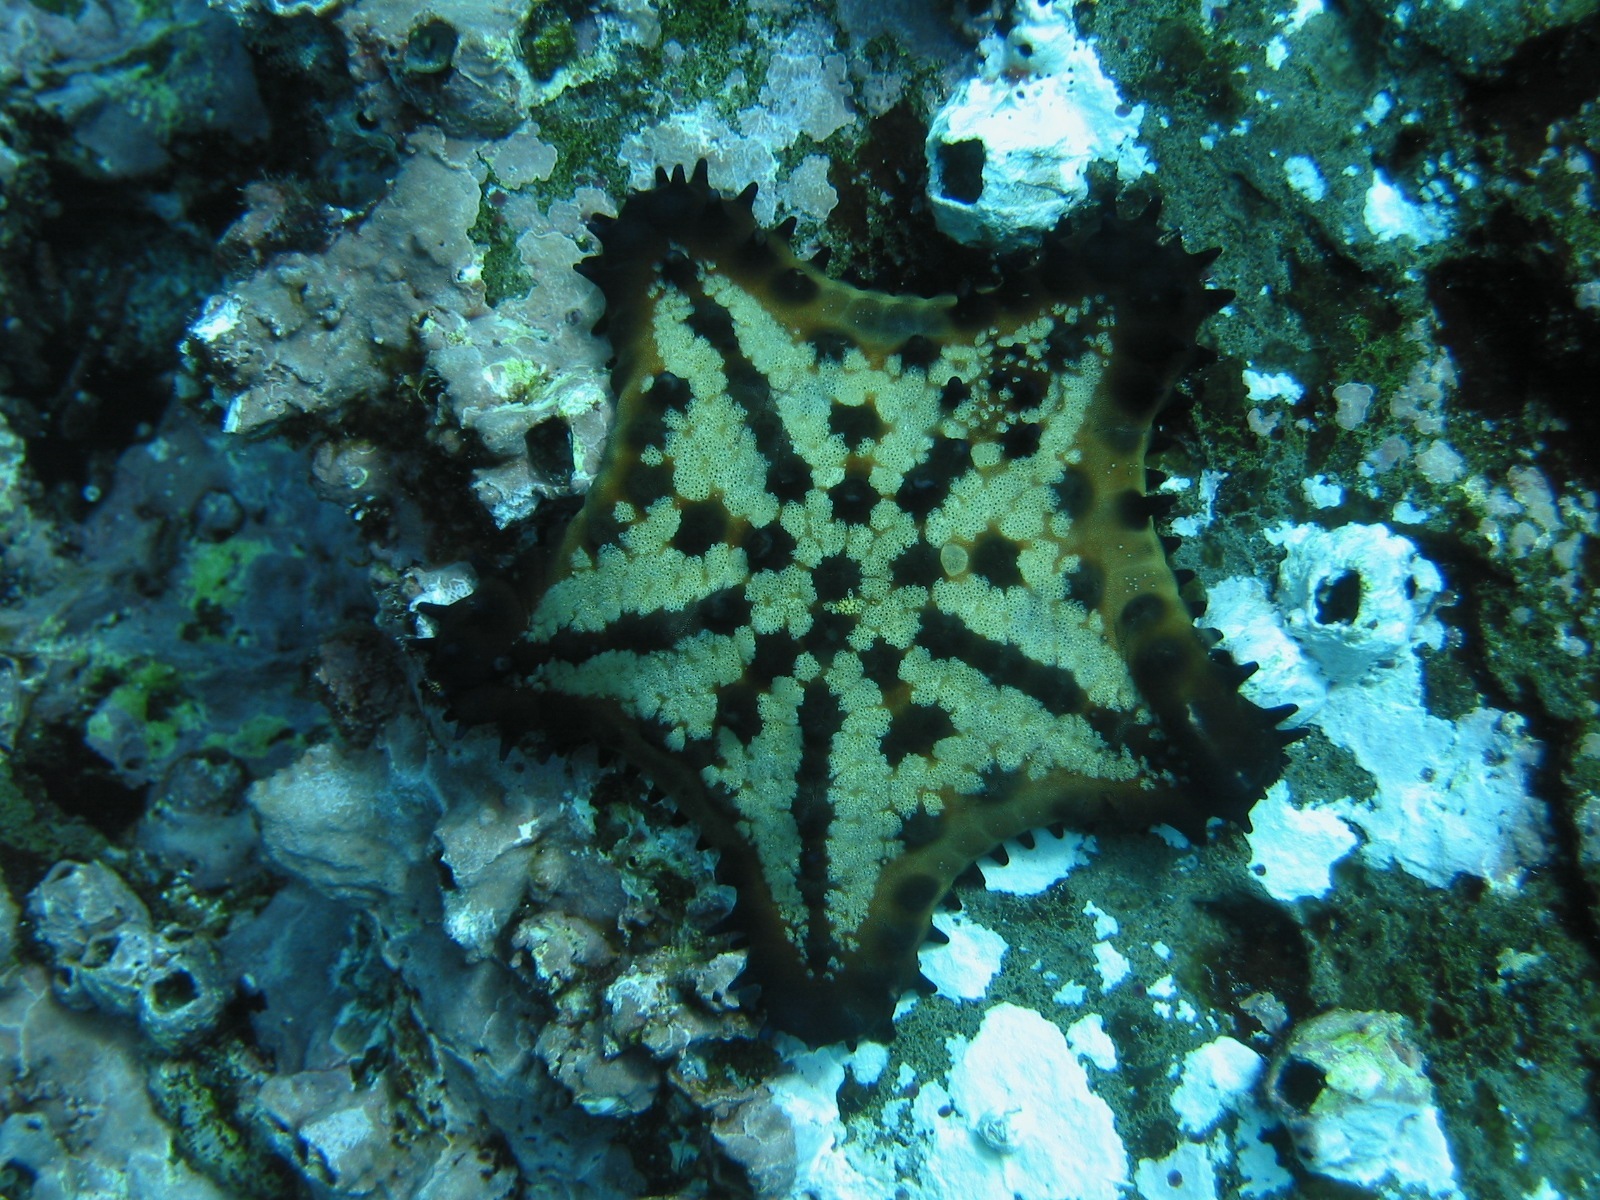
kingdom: Animalia
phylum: Echinodermata
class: Asteroidea
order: Valvatida
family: Oreasteridae
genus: Nidorellia
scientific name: Nidorellia armata
